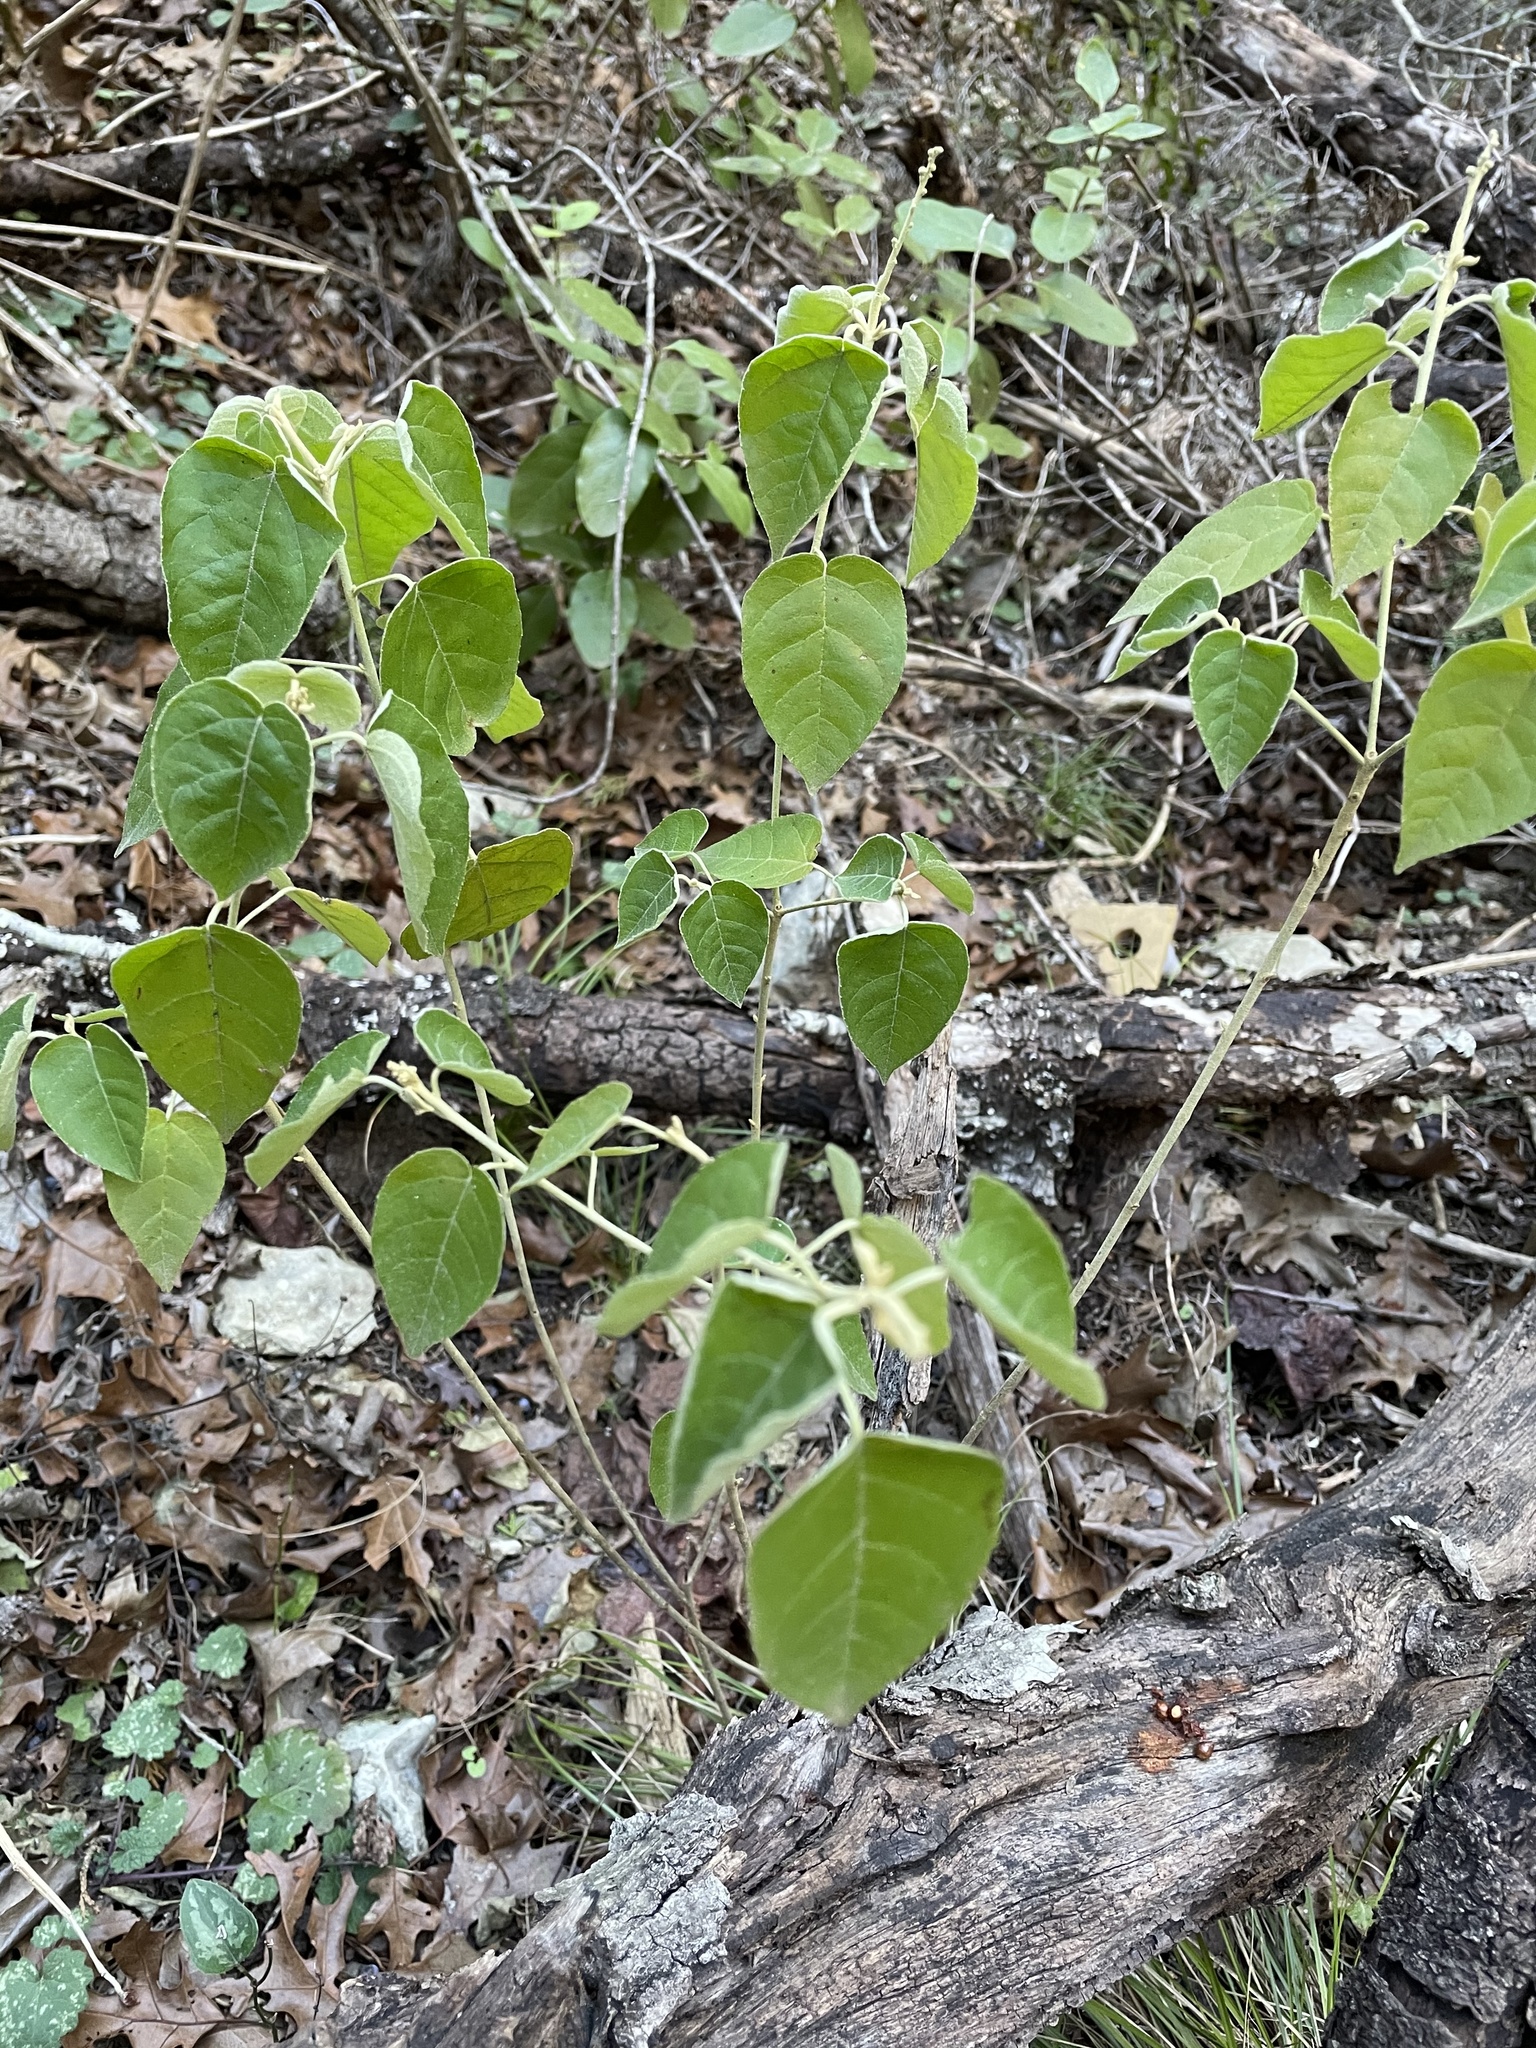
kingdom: Plantae
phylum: Tracheophyta
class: Magnoliopsida
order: Malpighiales
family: Euphorbiaceae
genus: Croton
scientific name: Croton fruticulosus
